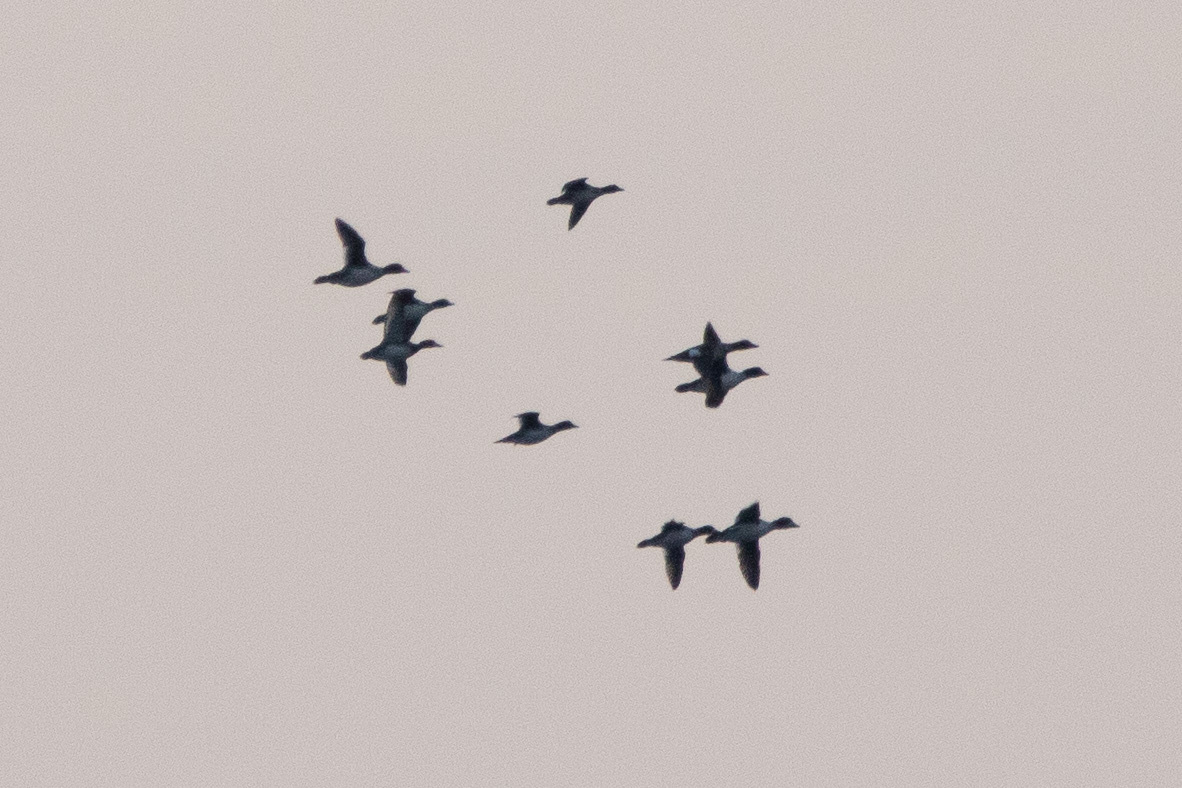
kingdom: Animalia
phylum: Chordata
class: Aves
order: Anseriformes
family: Anatidae
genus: Bucephala
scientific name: Bucephala clangula
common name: Common goldeneye
